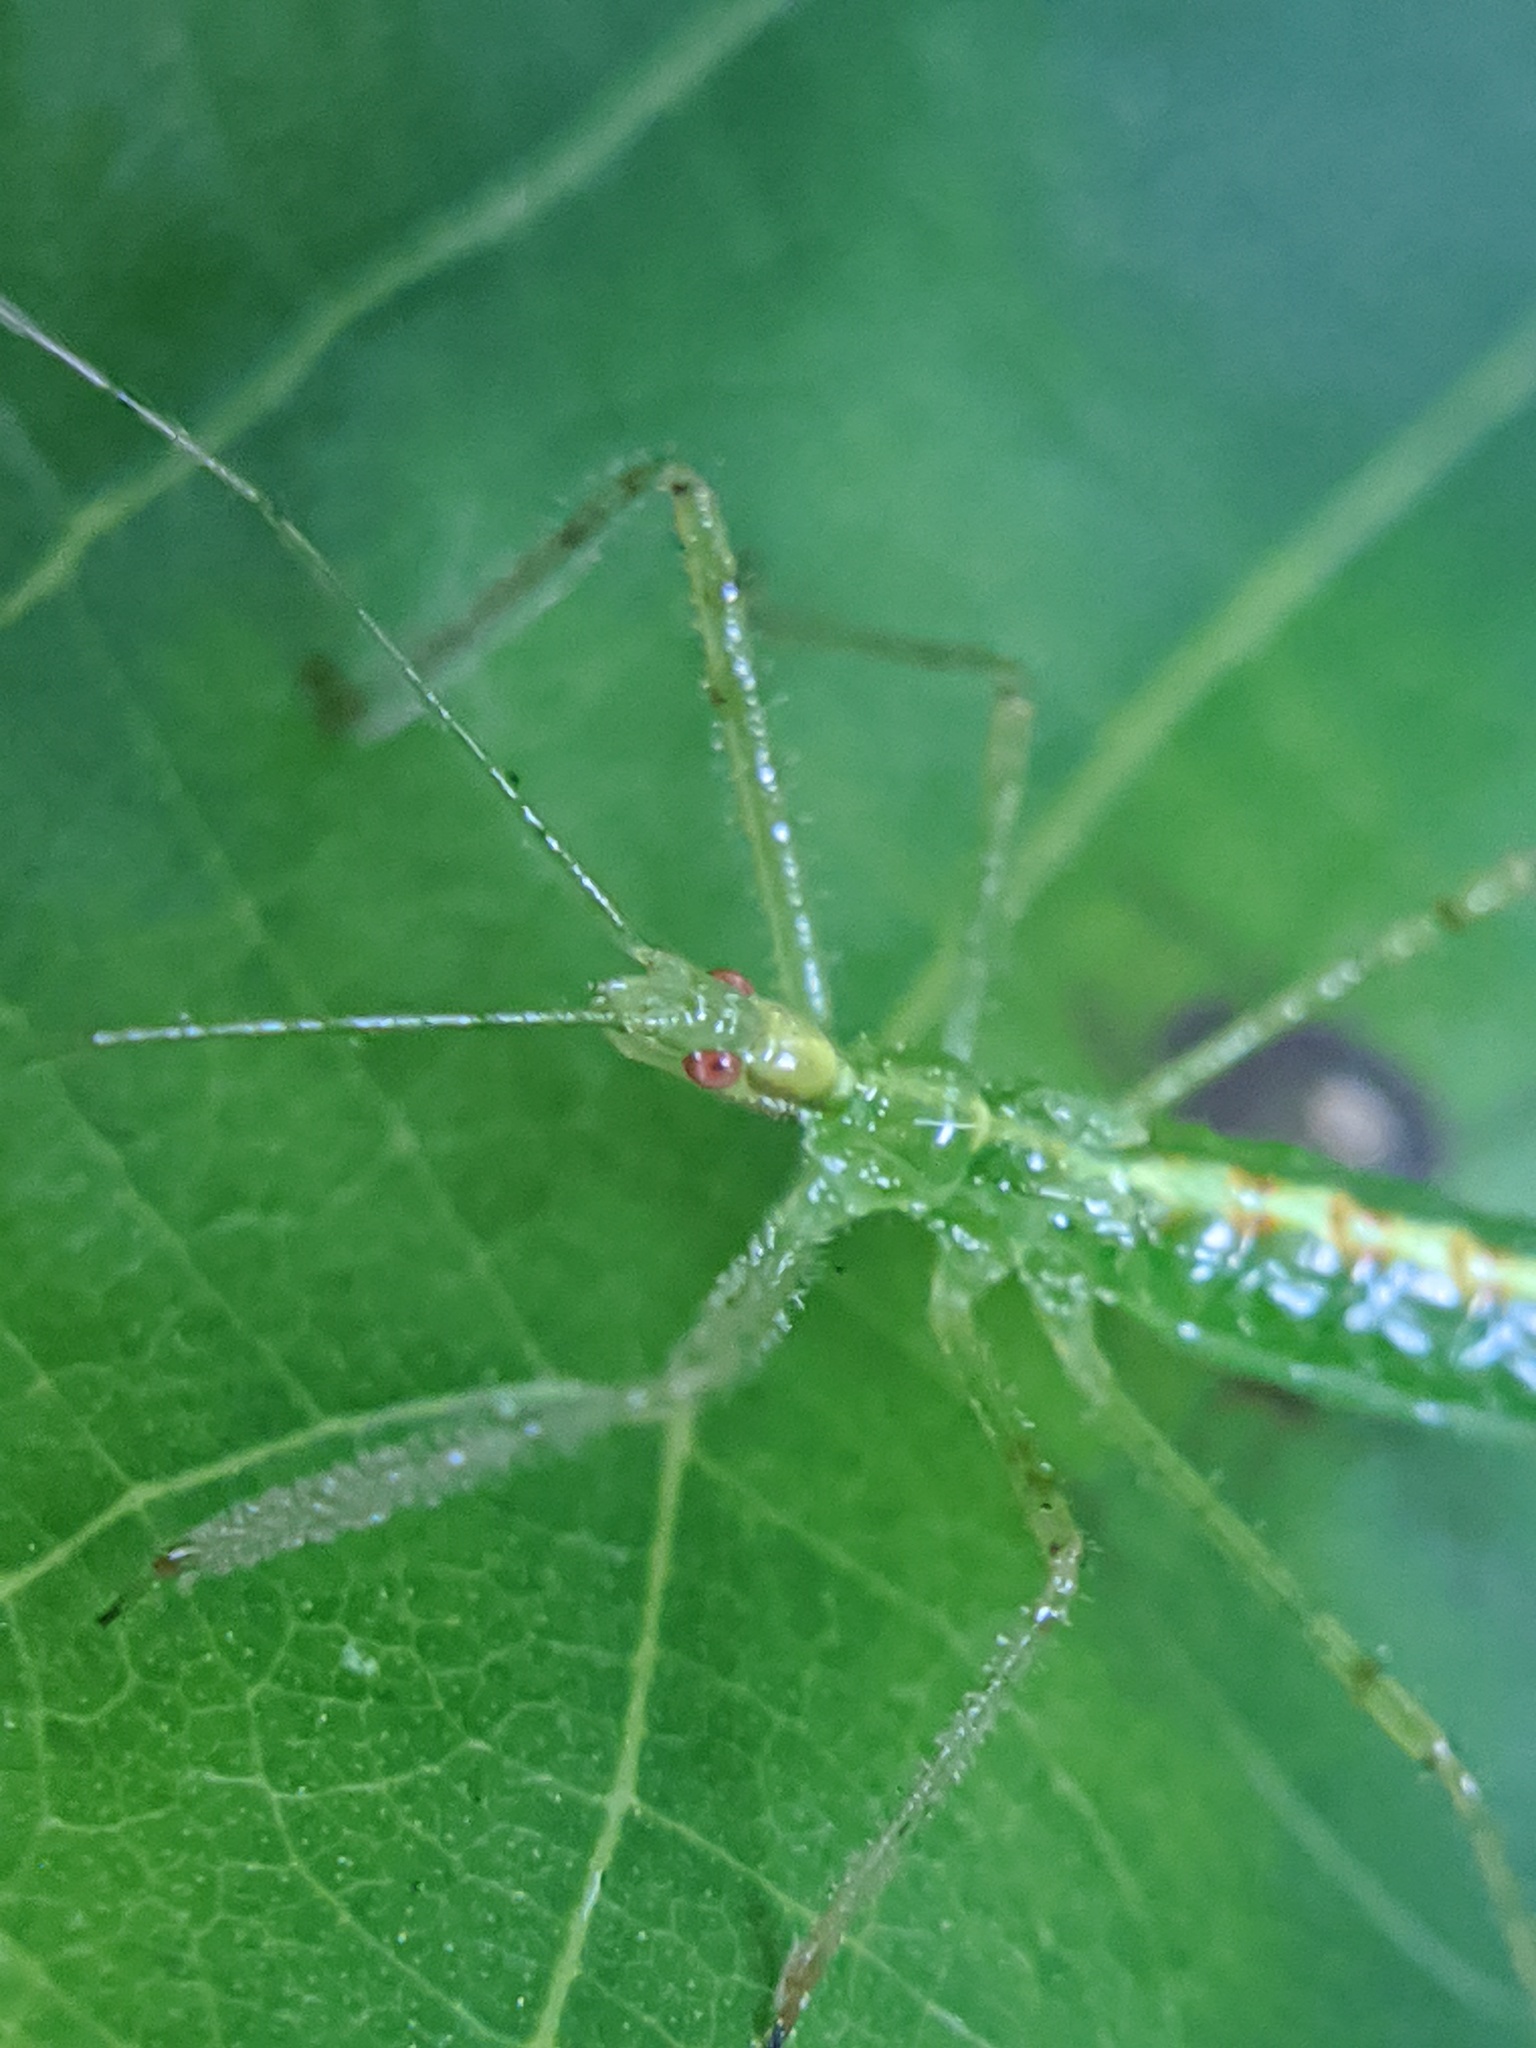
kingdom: Animalia
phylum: Arthropoda
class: Insecta
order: Hemiptera
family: Reduviidae
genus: Zelus
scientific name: Zelus luridus
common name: Pale green assassin bug
